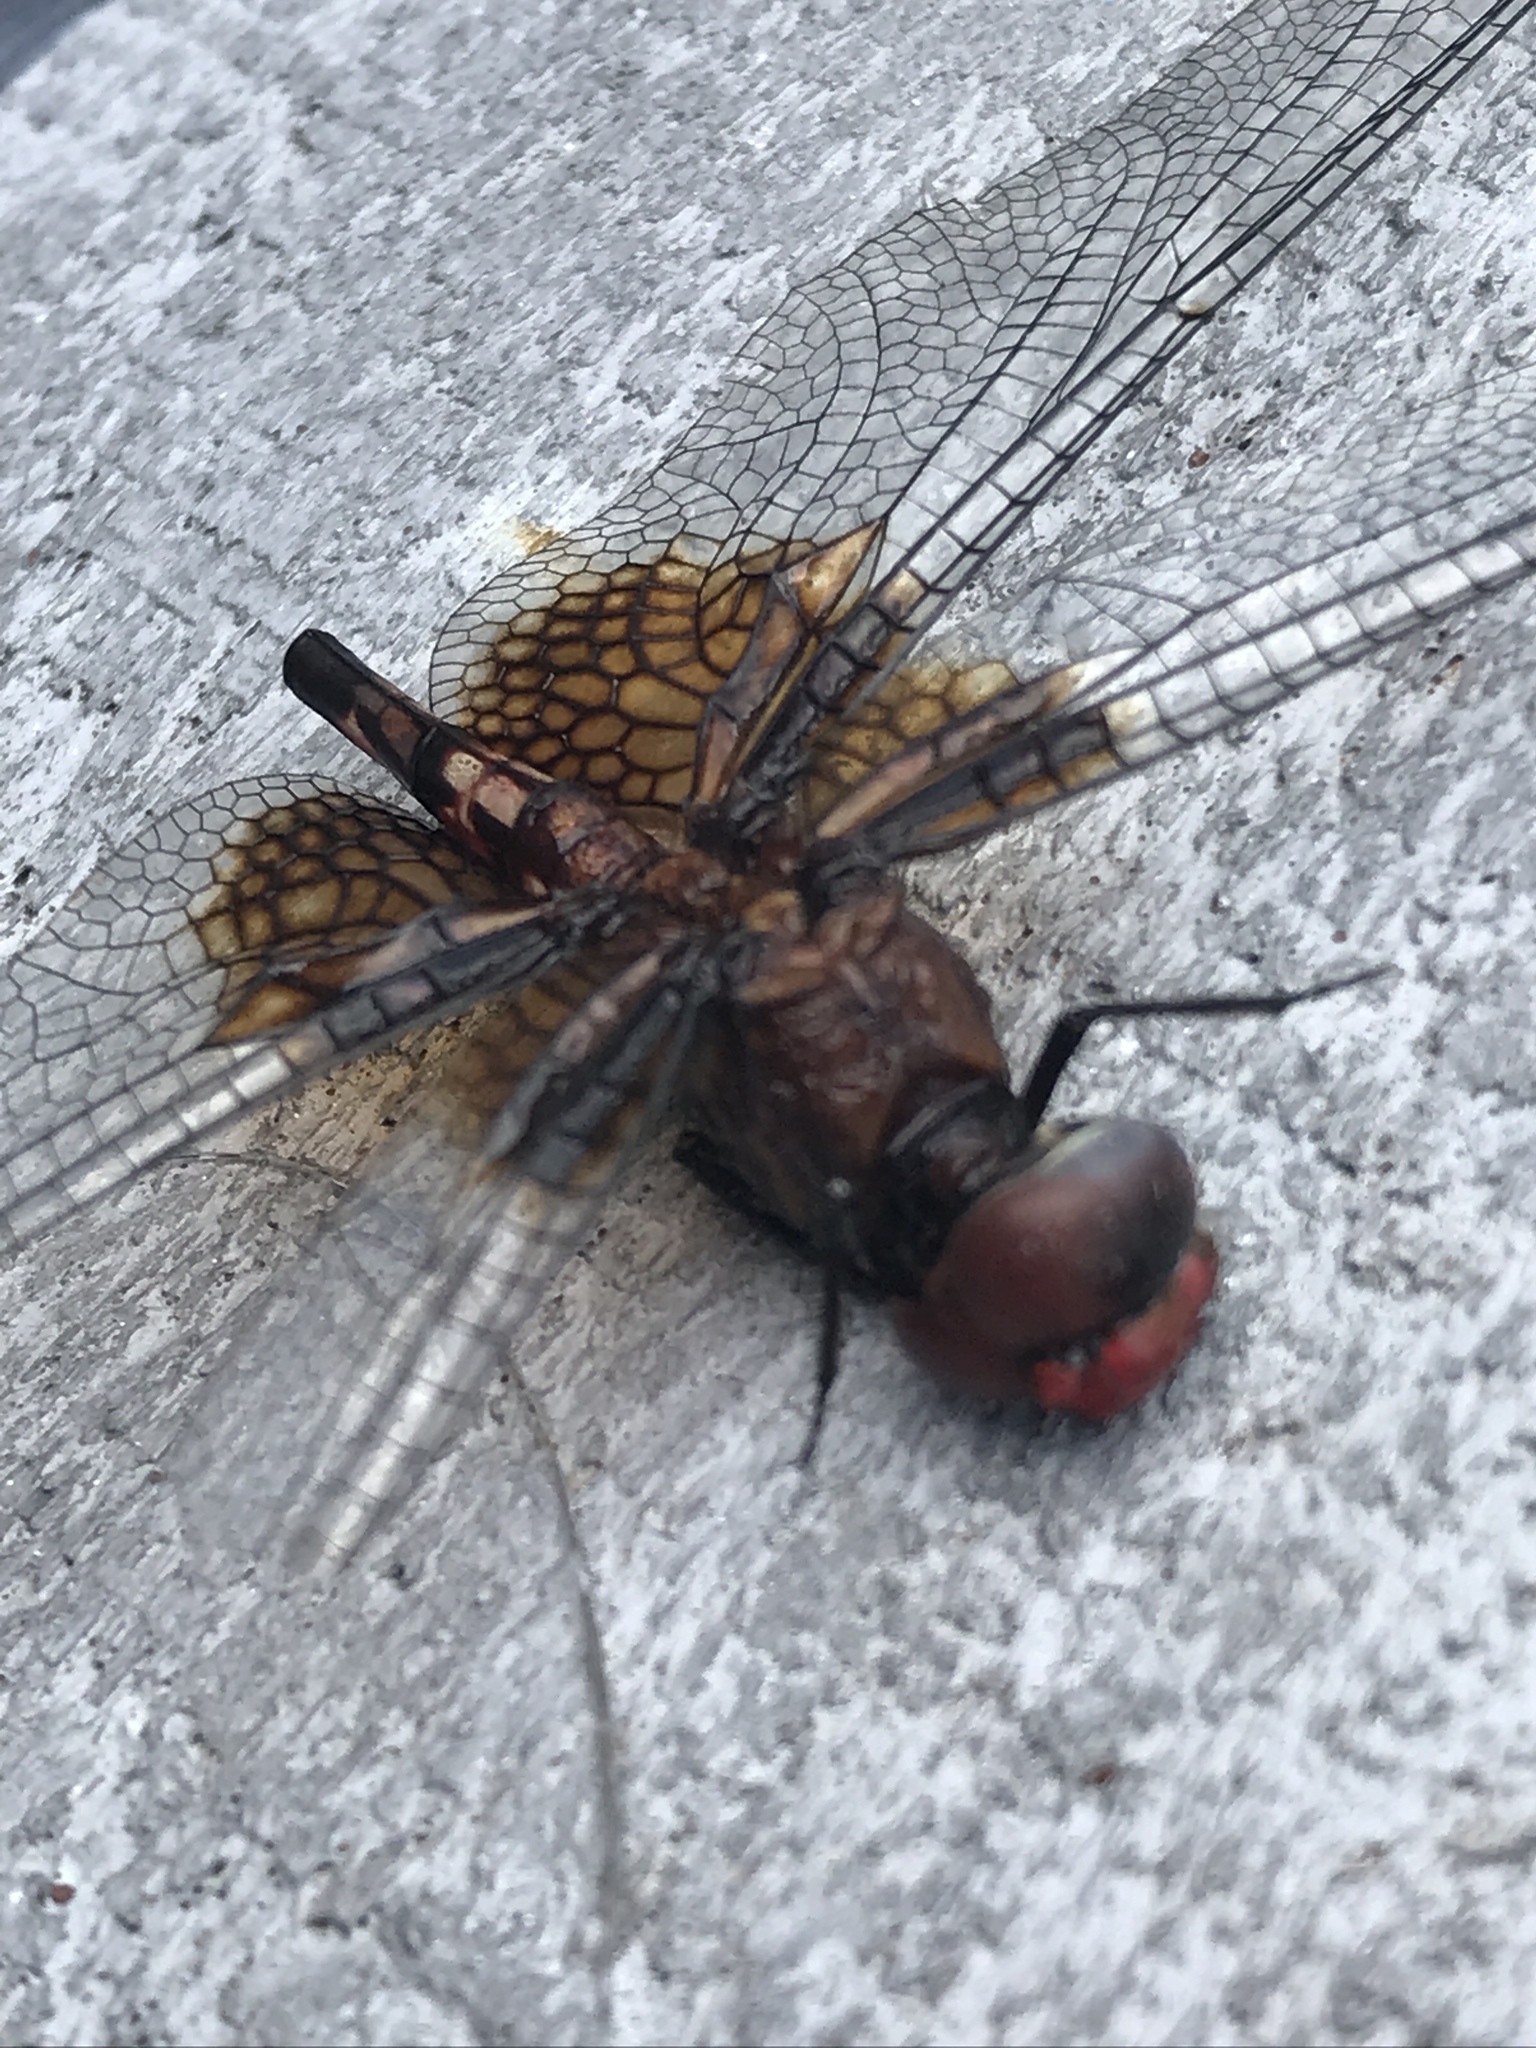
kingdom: Animalia
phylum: Arthropoda
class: Insecta
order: Odonata
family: Libellulidae
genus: Dythemis
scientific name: Dythemis fugax
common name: Checkered setwing
